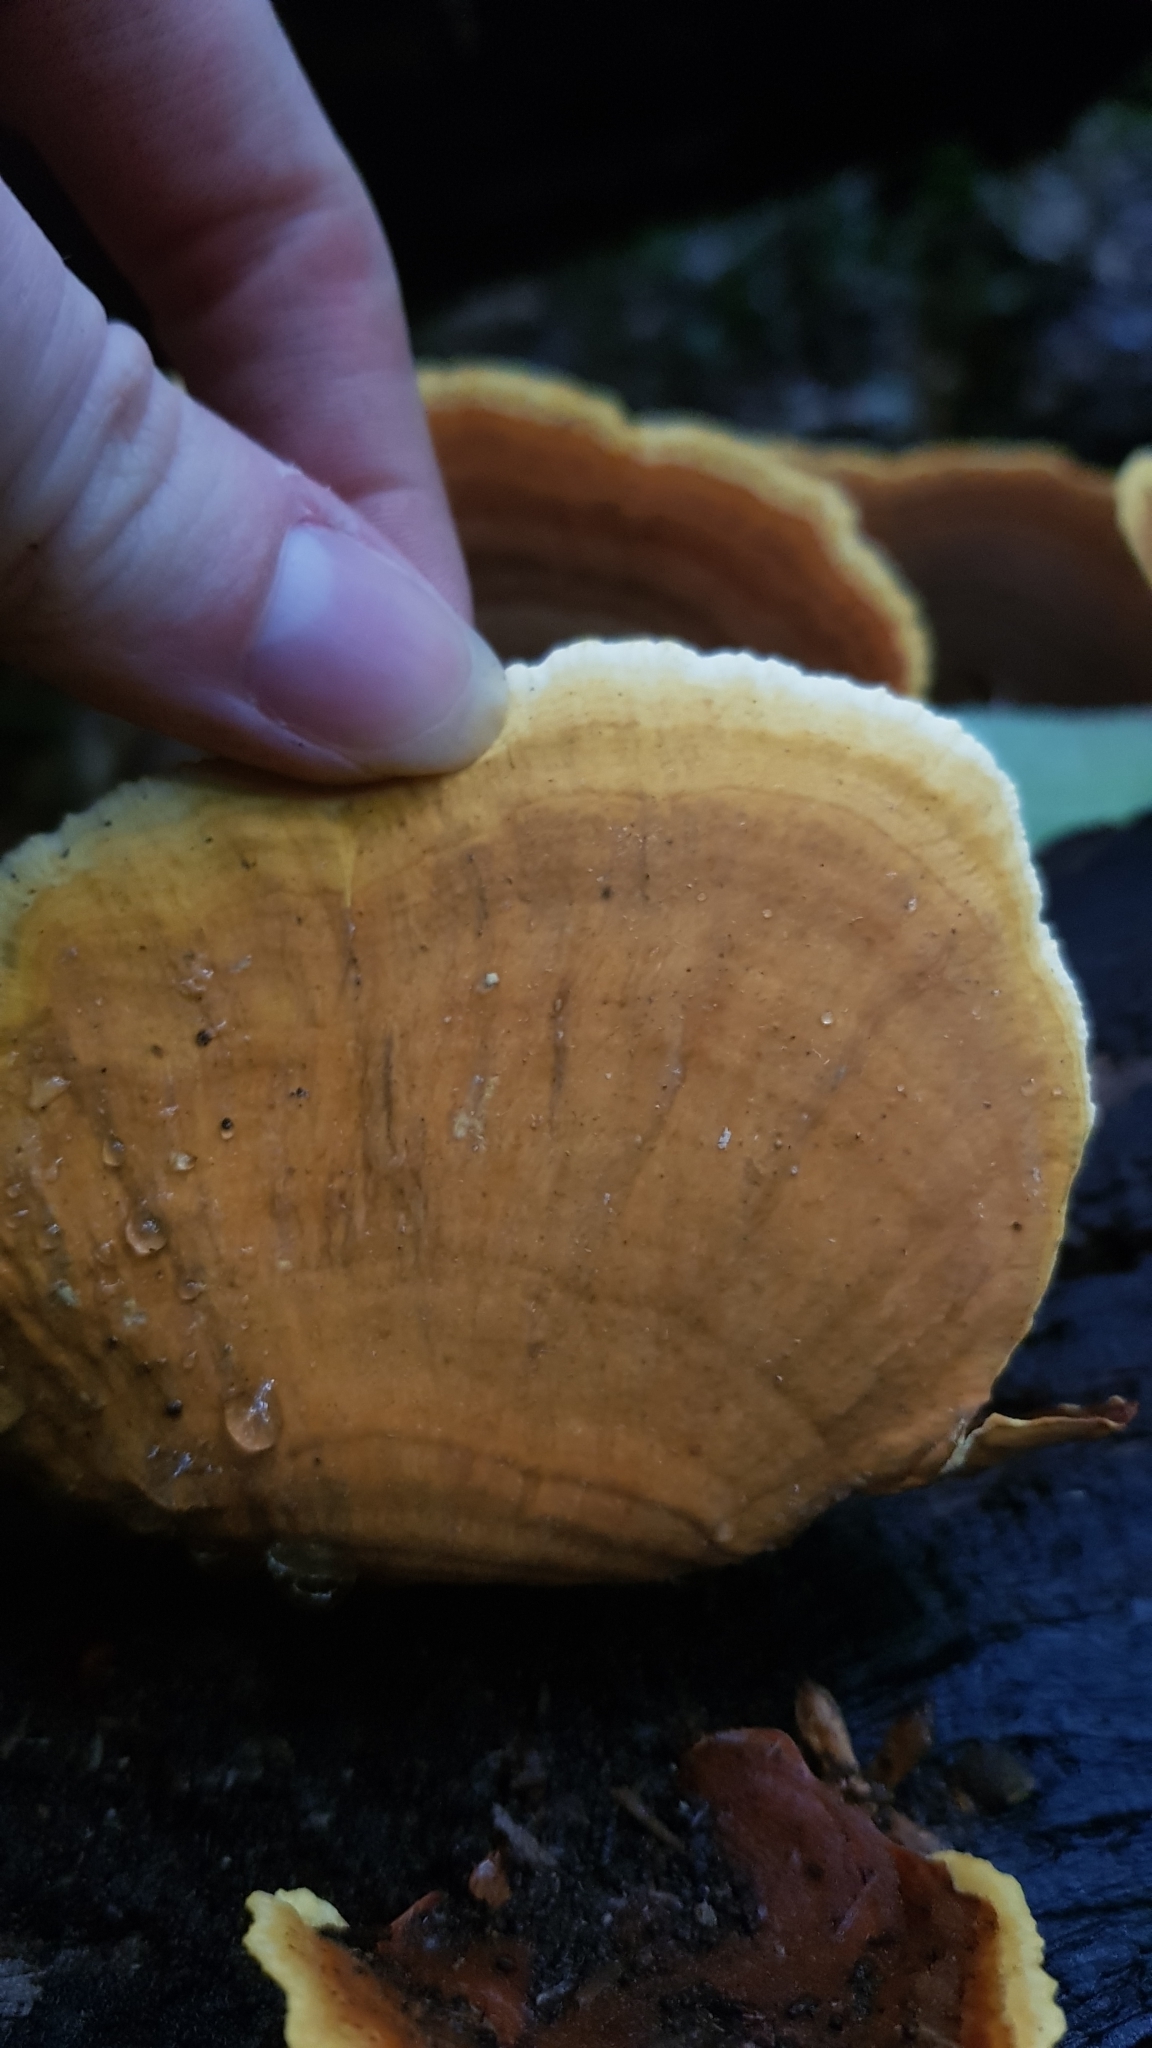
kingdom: Fungi
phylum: Basidiomycota
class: Agaricomycetes
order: Russulales
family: Stereaceae
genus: Stereum
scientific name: Stereum versicolor
